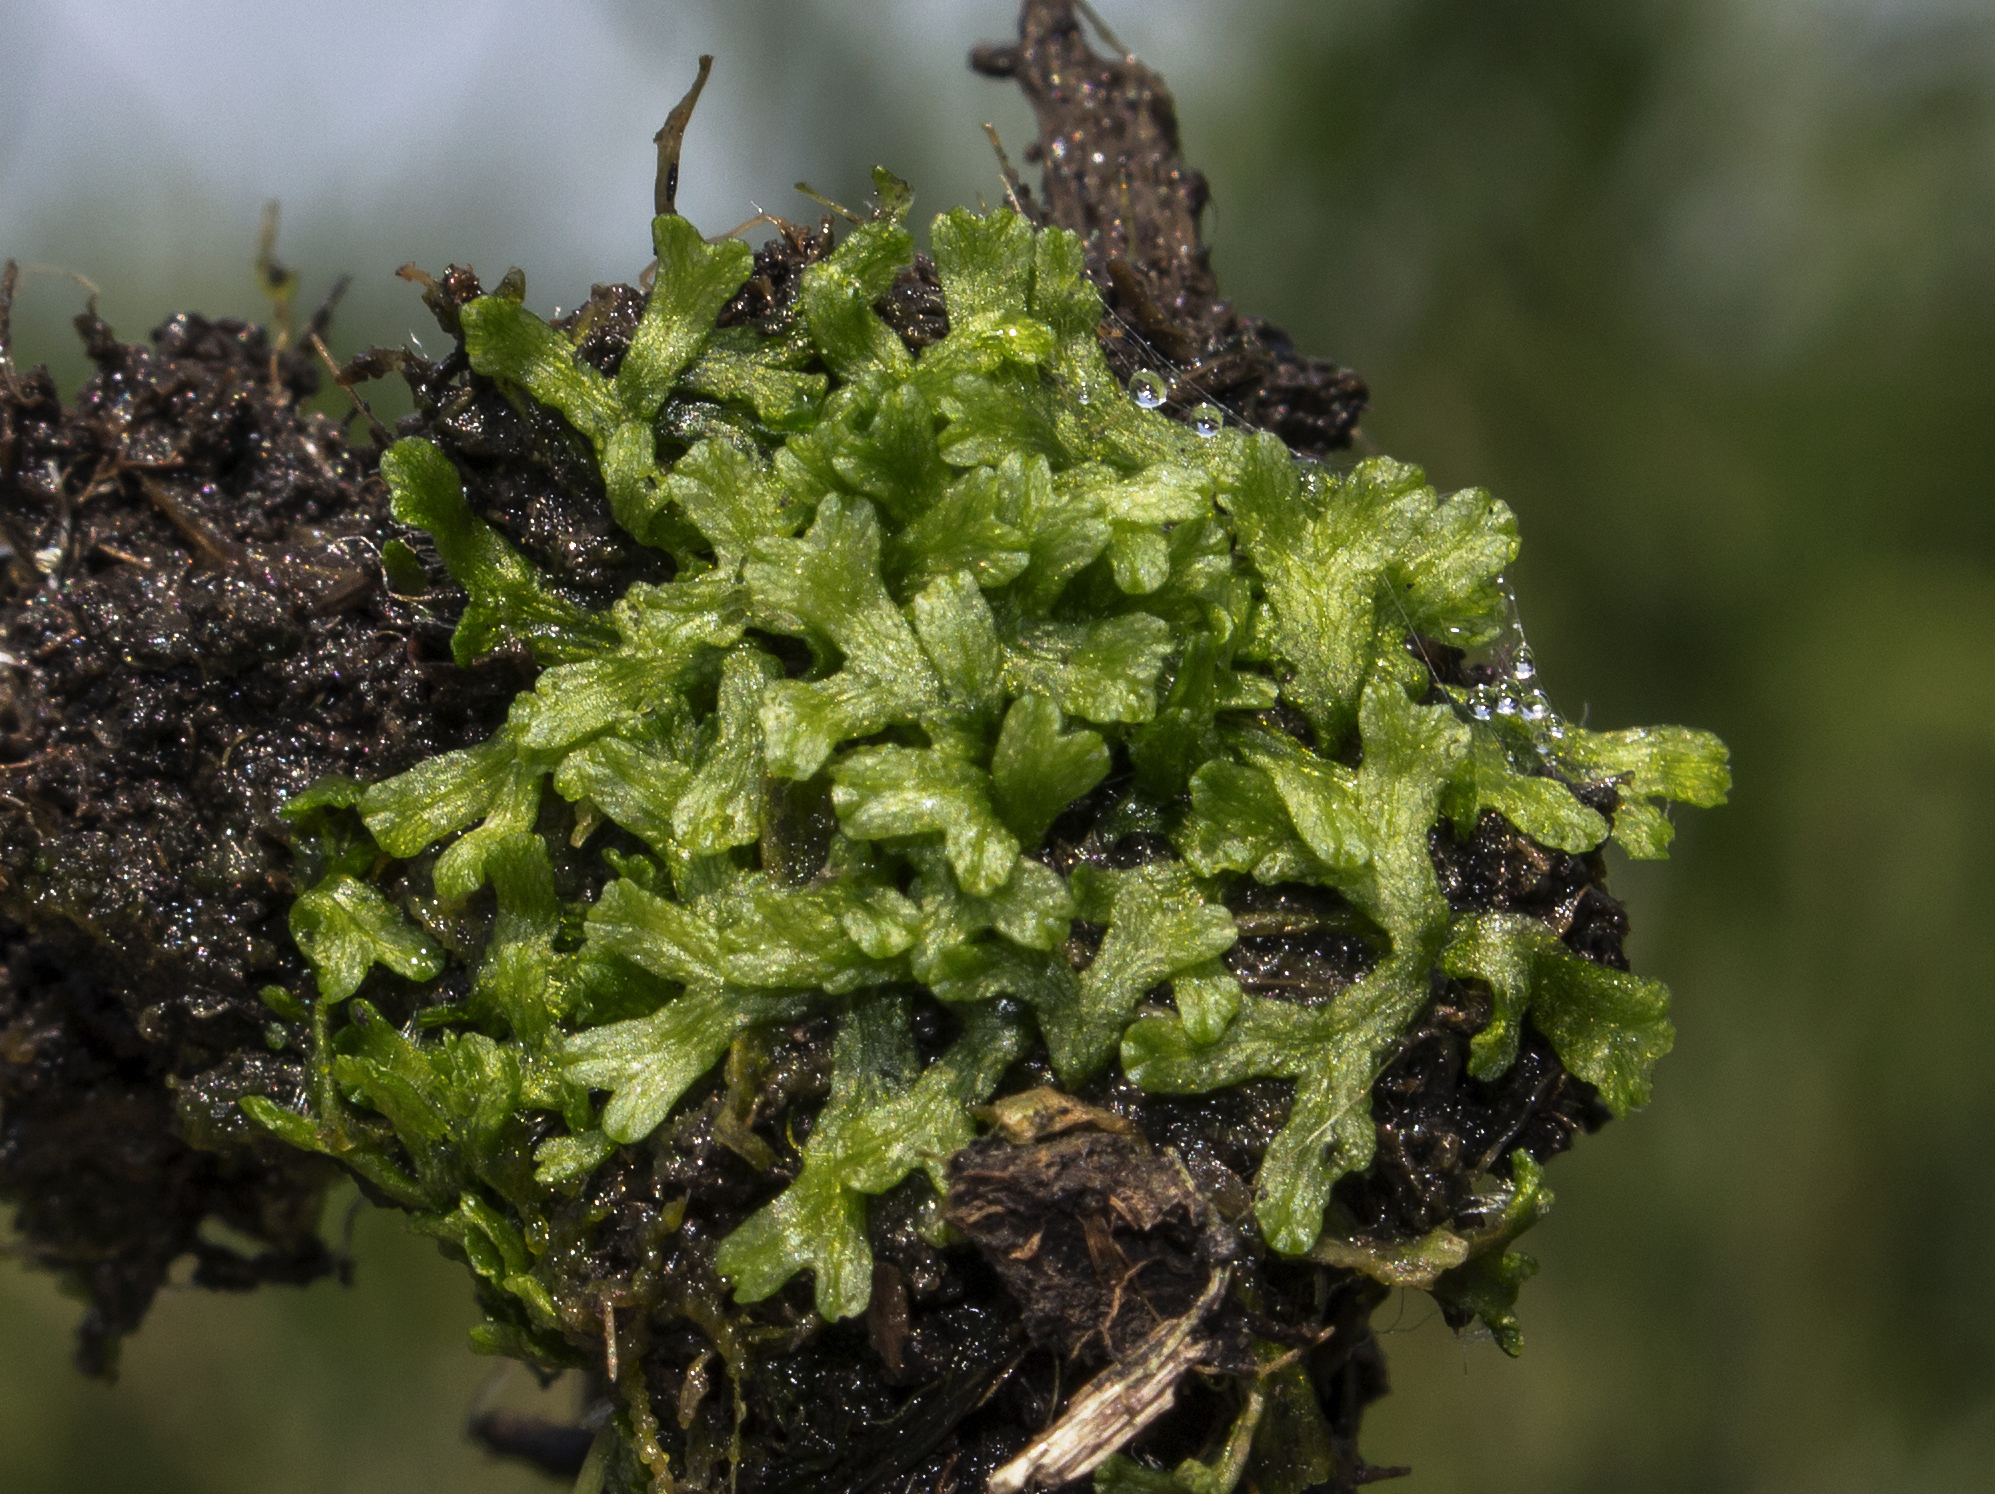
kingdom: Plantae
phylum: Marchantiophyta
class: Marchantiopsida
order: Marchantiales
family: Ricciaceae
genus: Riccia
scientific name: Riccia fluitans
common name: Floating crystalwort
